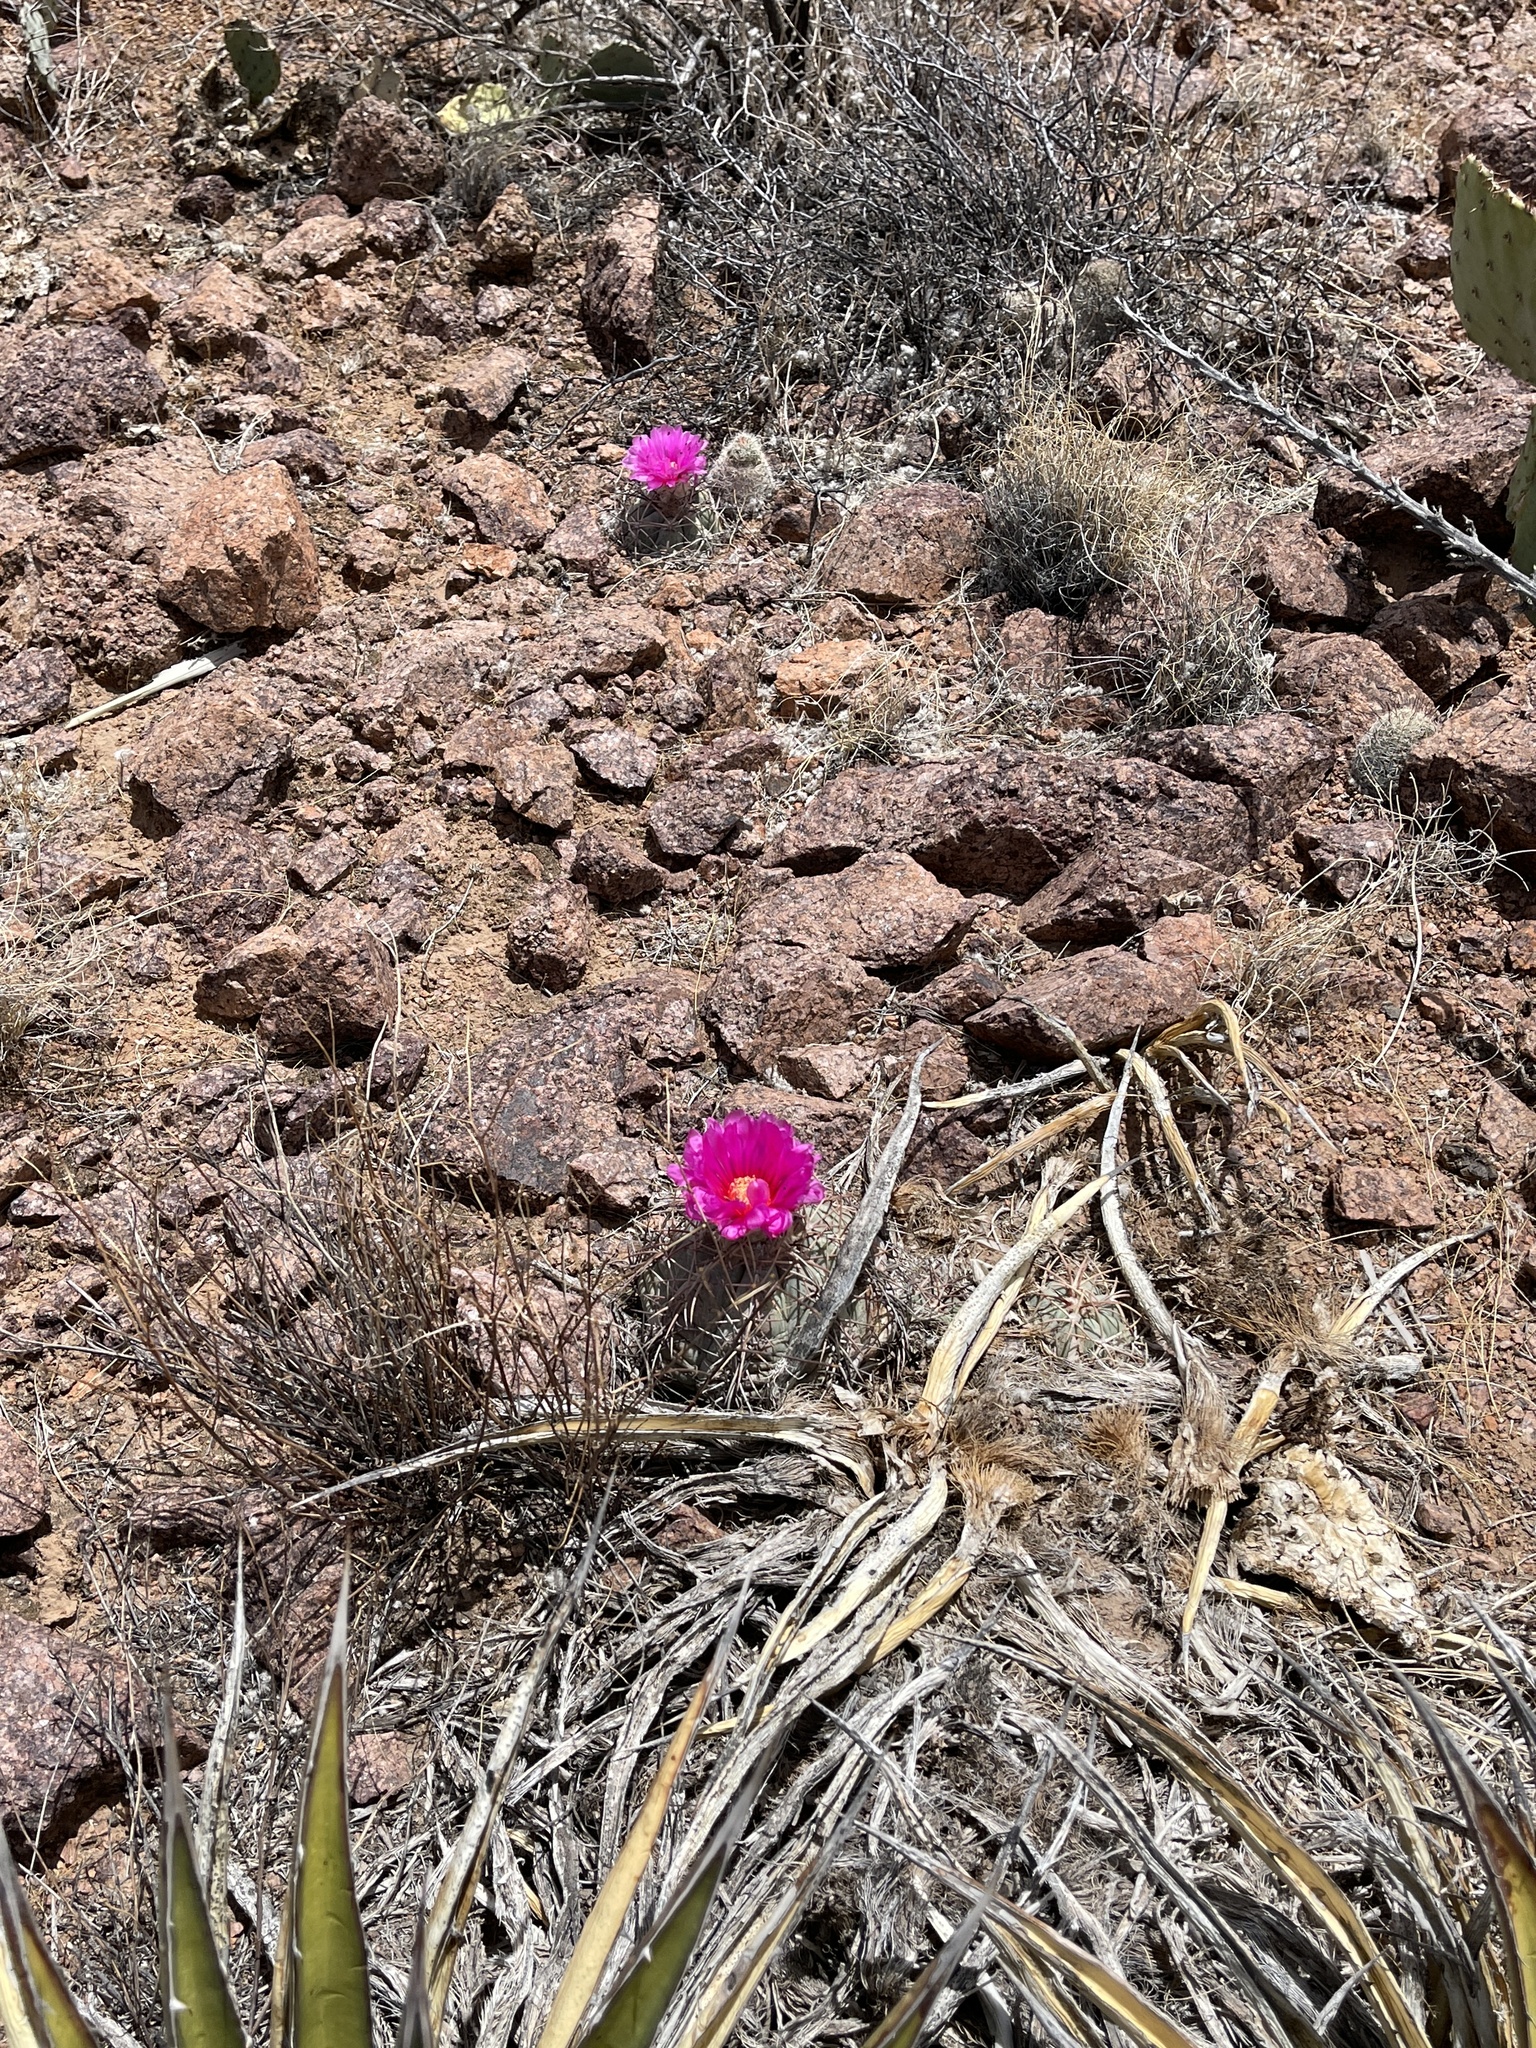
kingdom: Plantae
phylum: Tracheophyta
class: Magnoliopsida
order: Caryophyllales
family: Cactaceae
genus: Echinocactus
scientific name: Echinocactus horizonthalonius
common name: Devilshead
